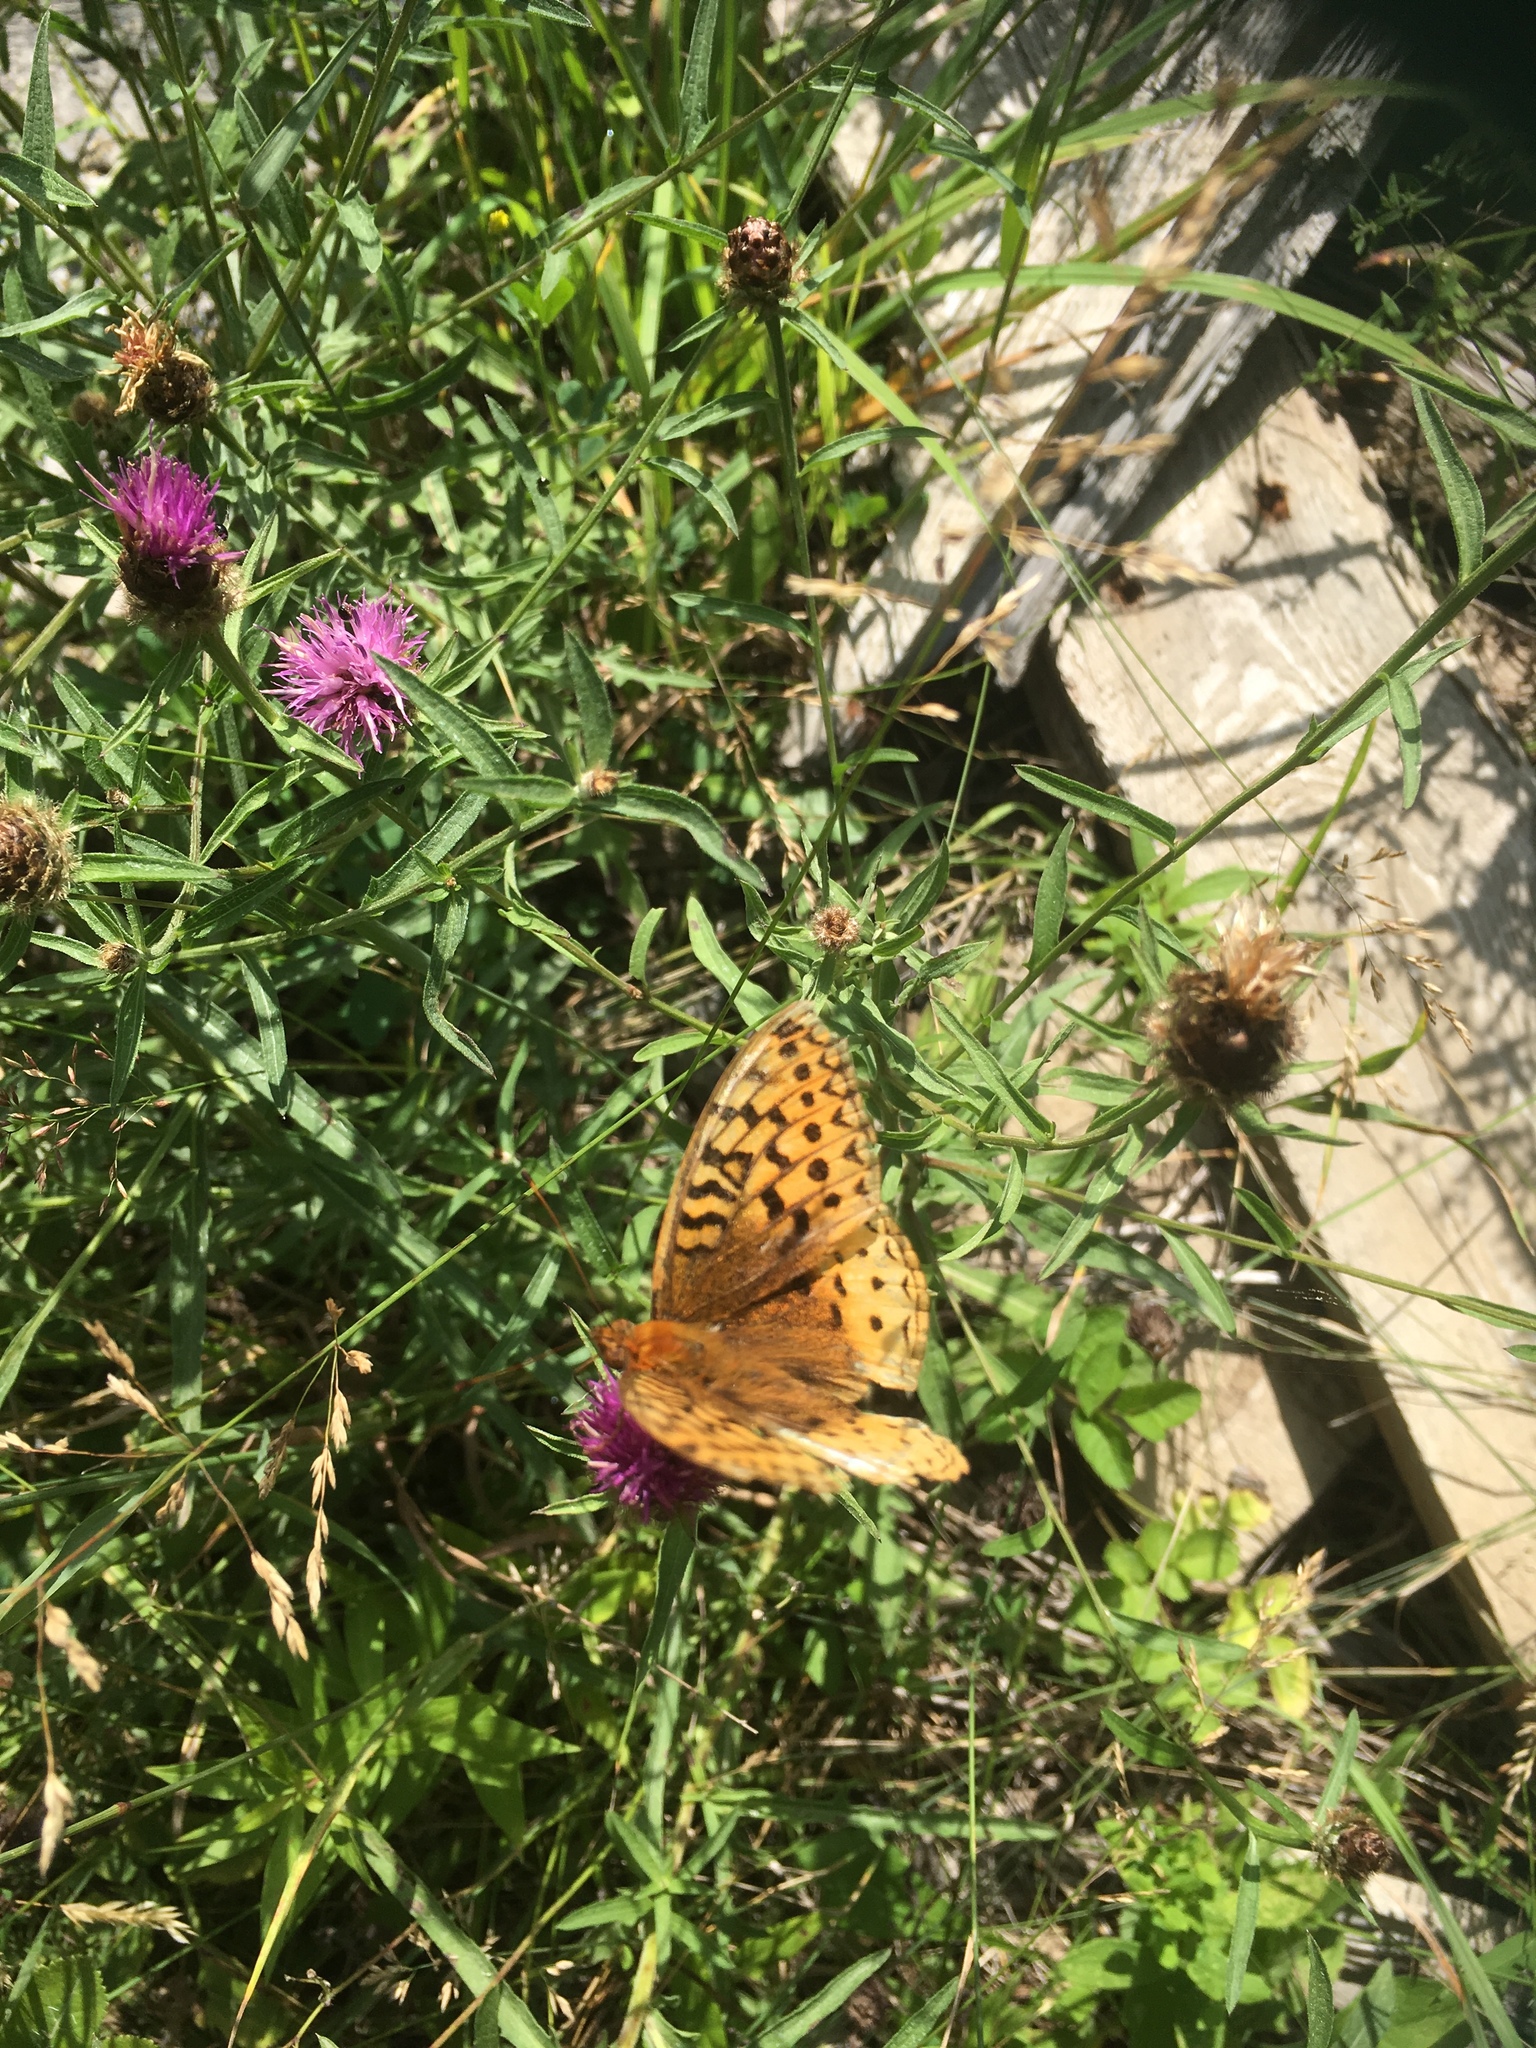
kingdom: Animalia
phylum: Arthropoda
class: Insecta
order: Lepidoptera
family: Nymphalidae
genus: Speyeria
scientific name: Speyeria cybele
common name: Great spangled fritillary
